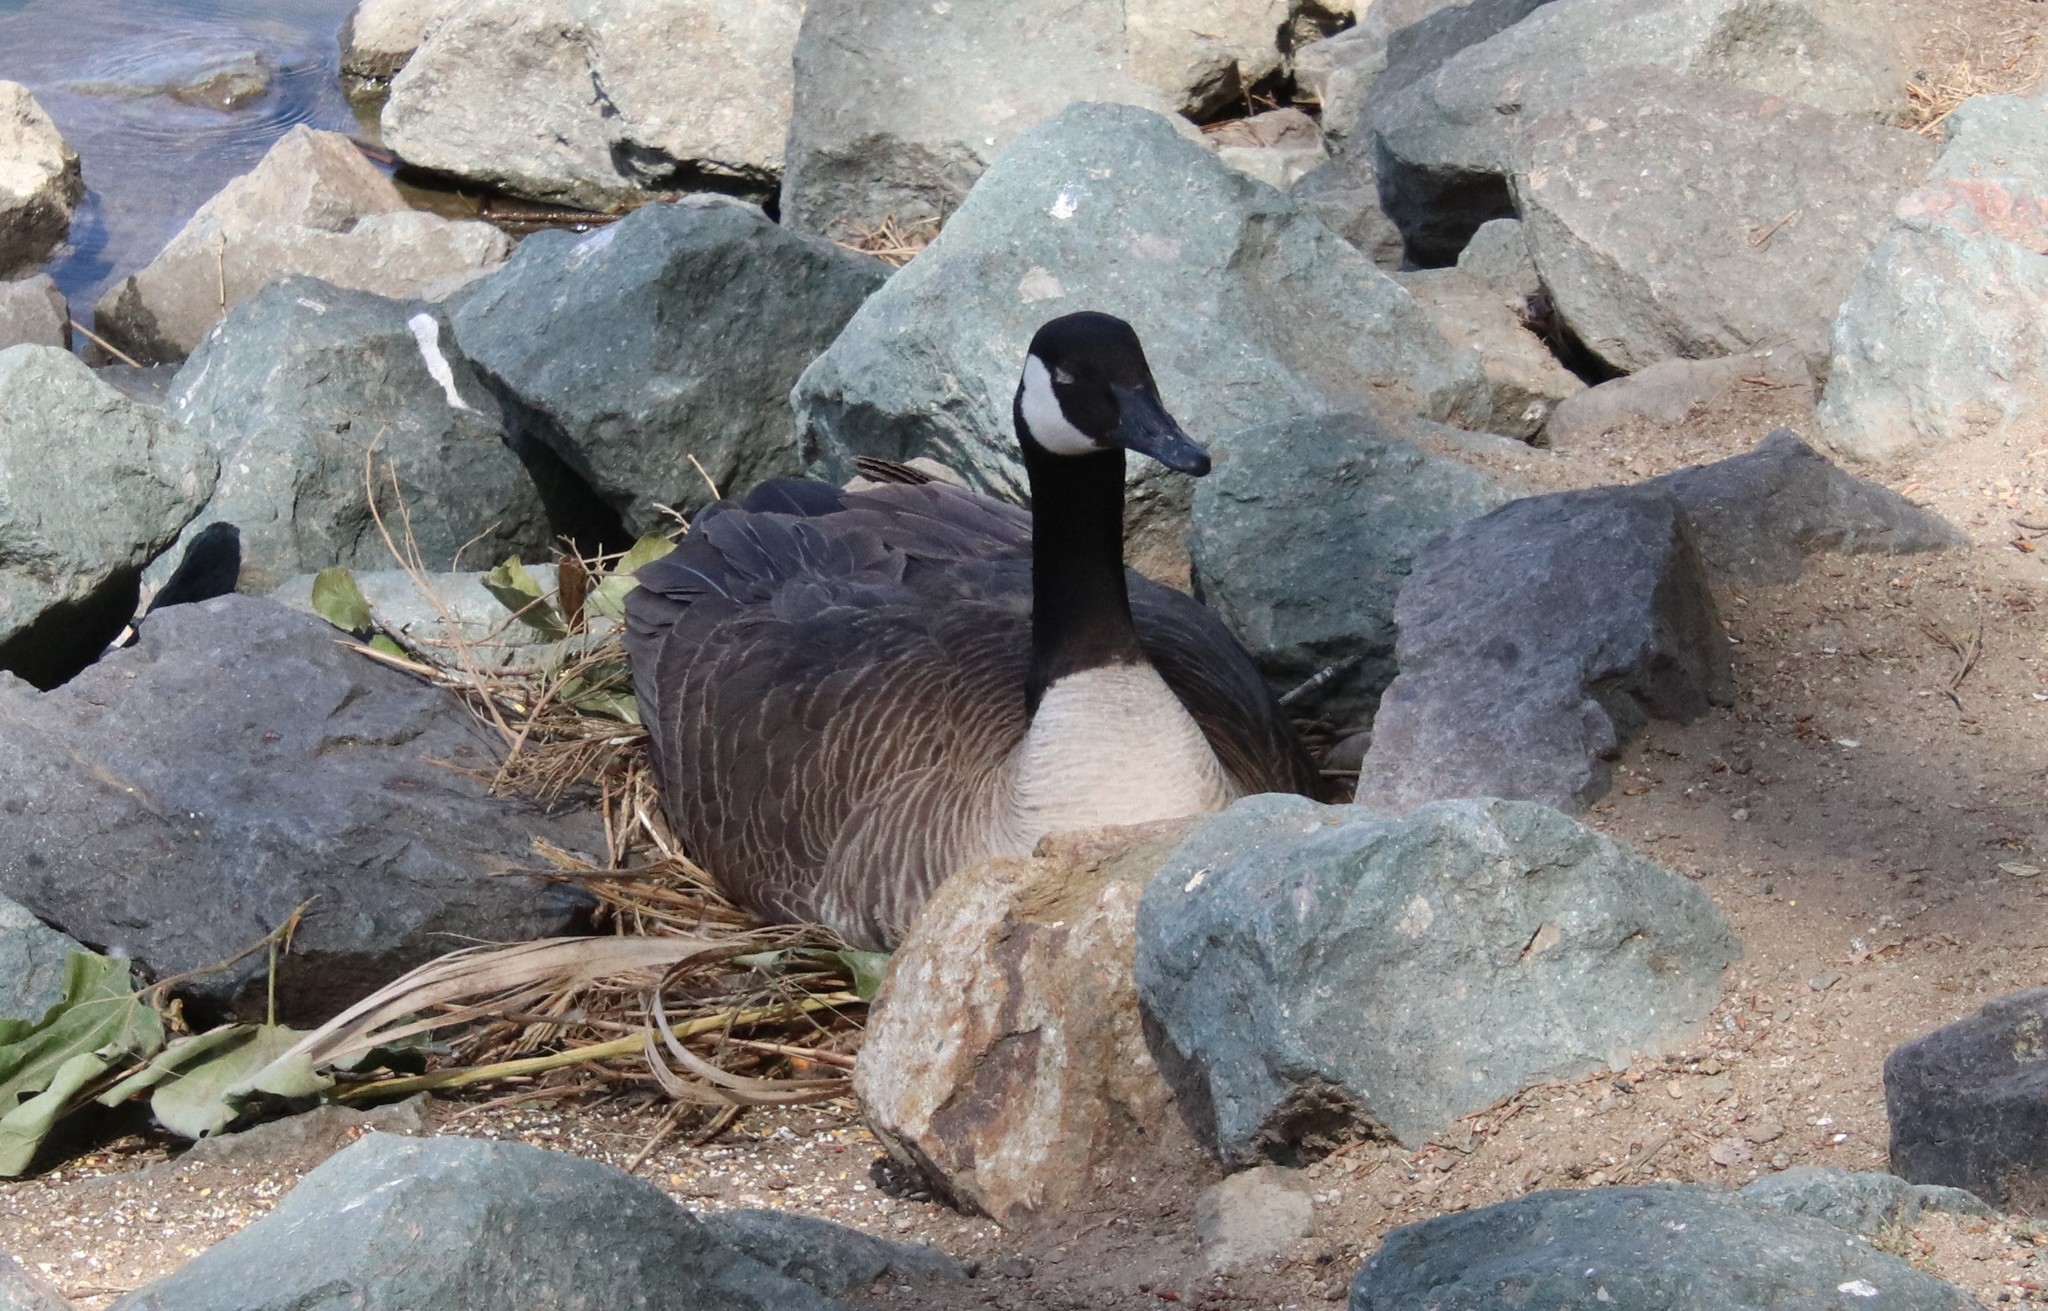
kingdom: Animalia
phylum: Chordata
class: Aves
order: Anseriformes
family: Anatidae
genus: Branta
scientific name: Branta canadensis
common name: Canada goose
